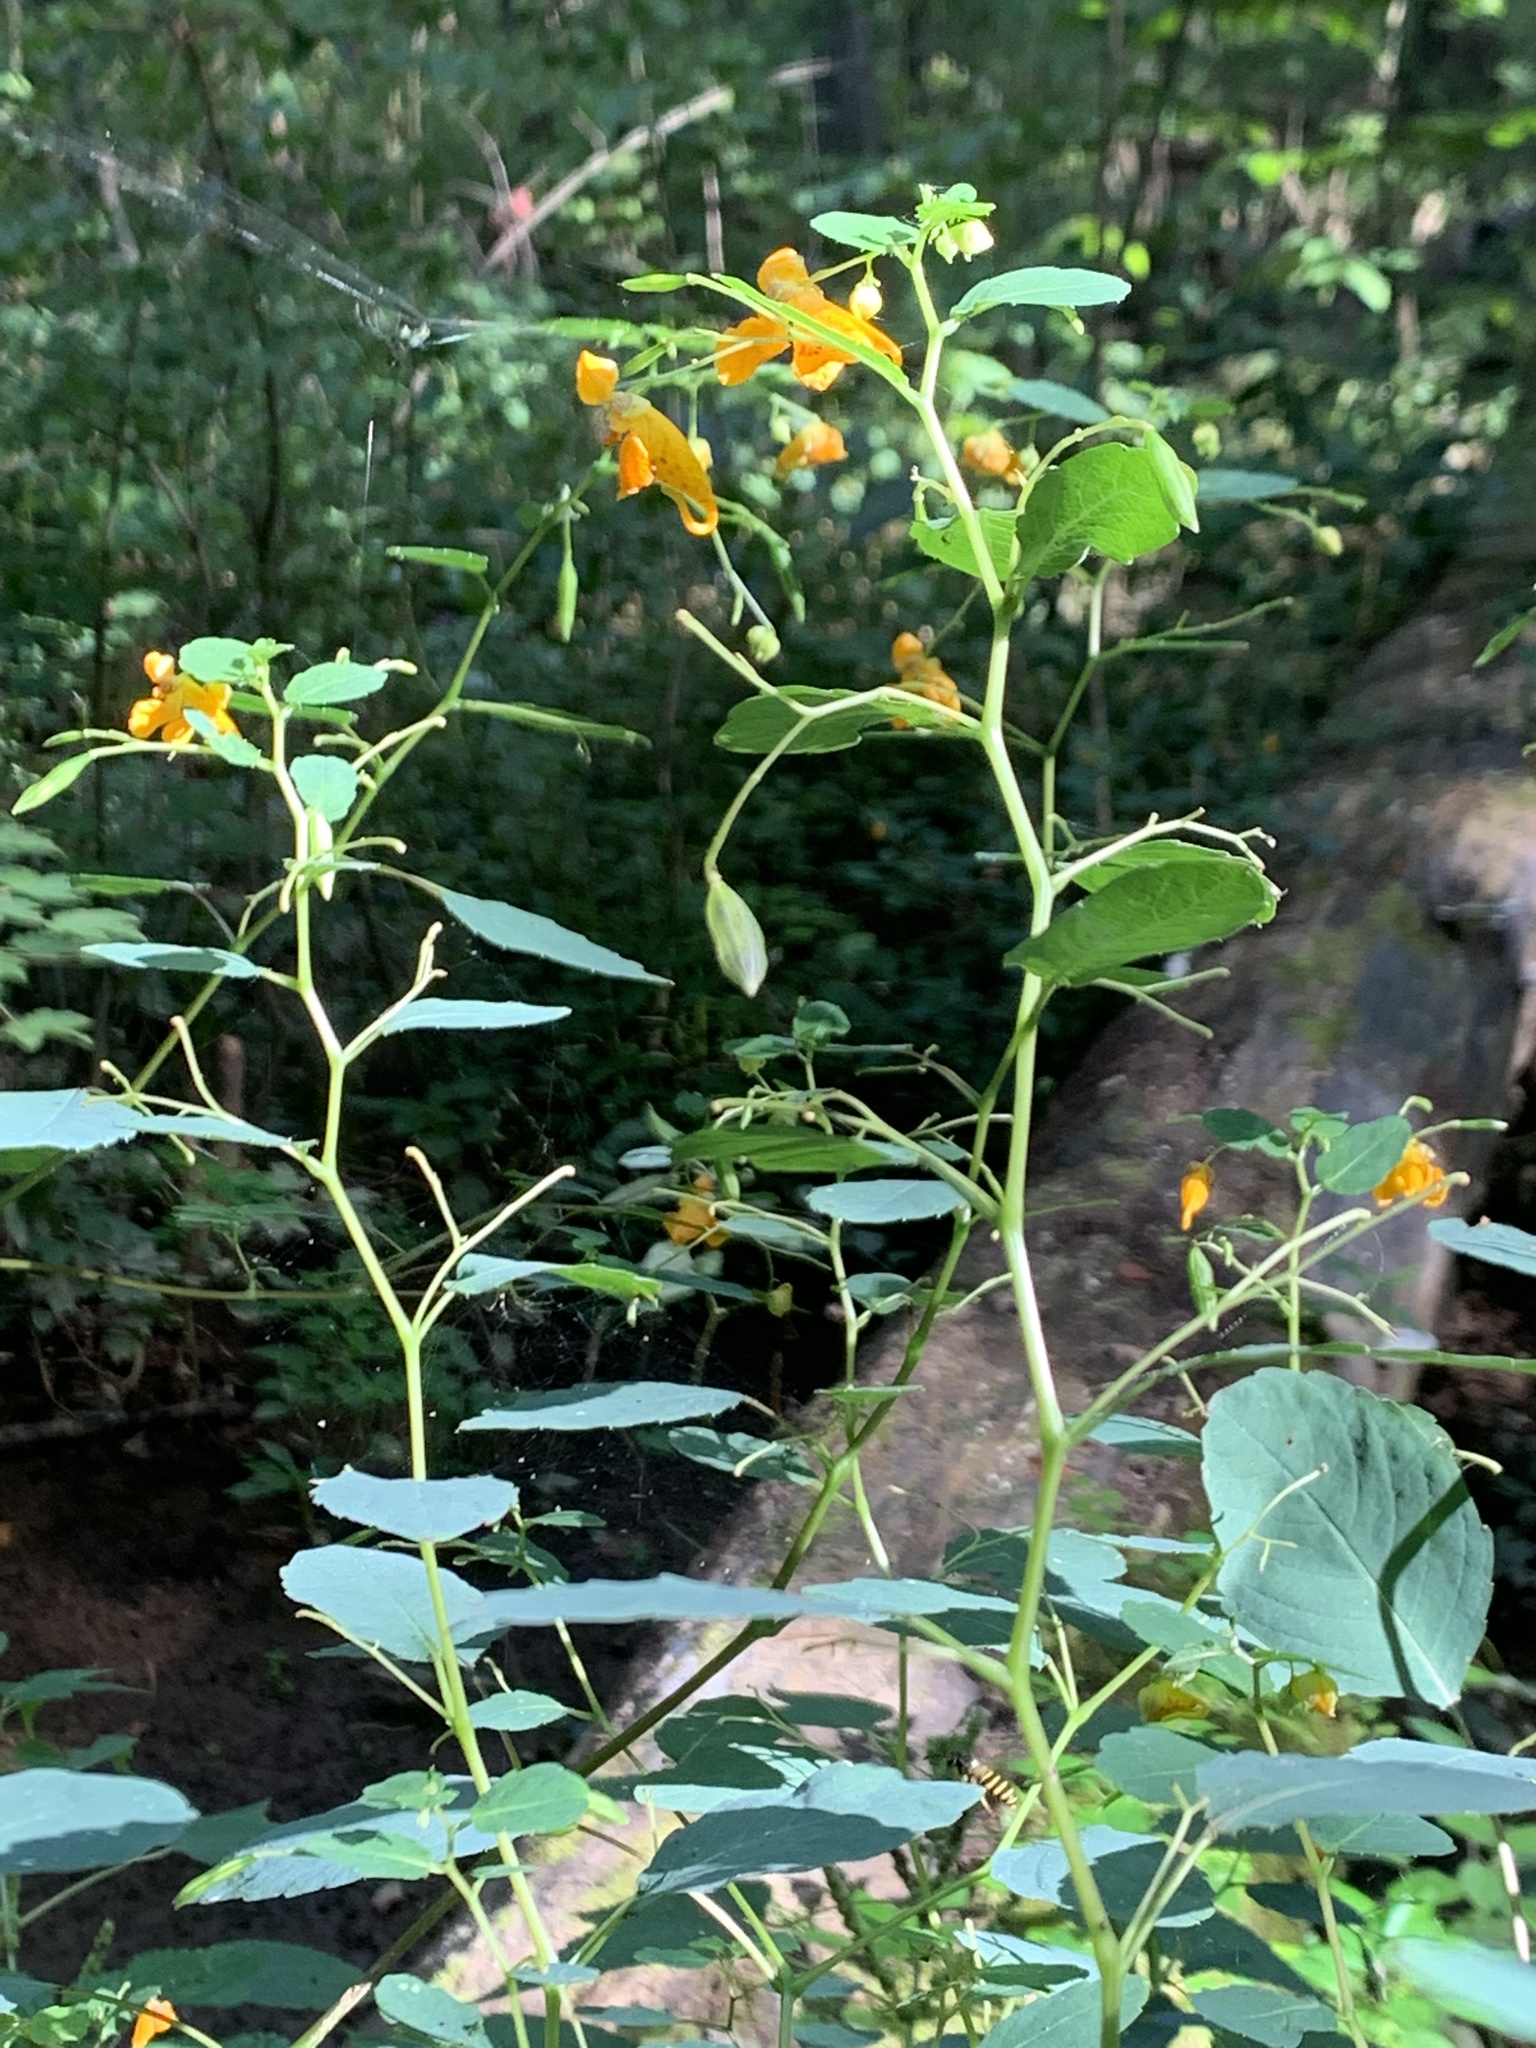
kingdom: Plantae
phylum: Tracheophyta
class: Magnoliopsida
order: Ericales
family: Balsaminaceae
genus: Impatiens
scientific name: Impatiens capensis
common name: Orange balsam
